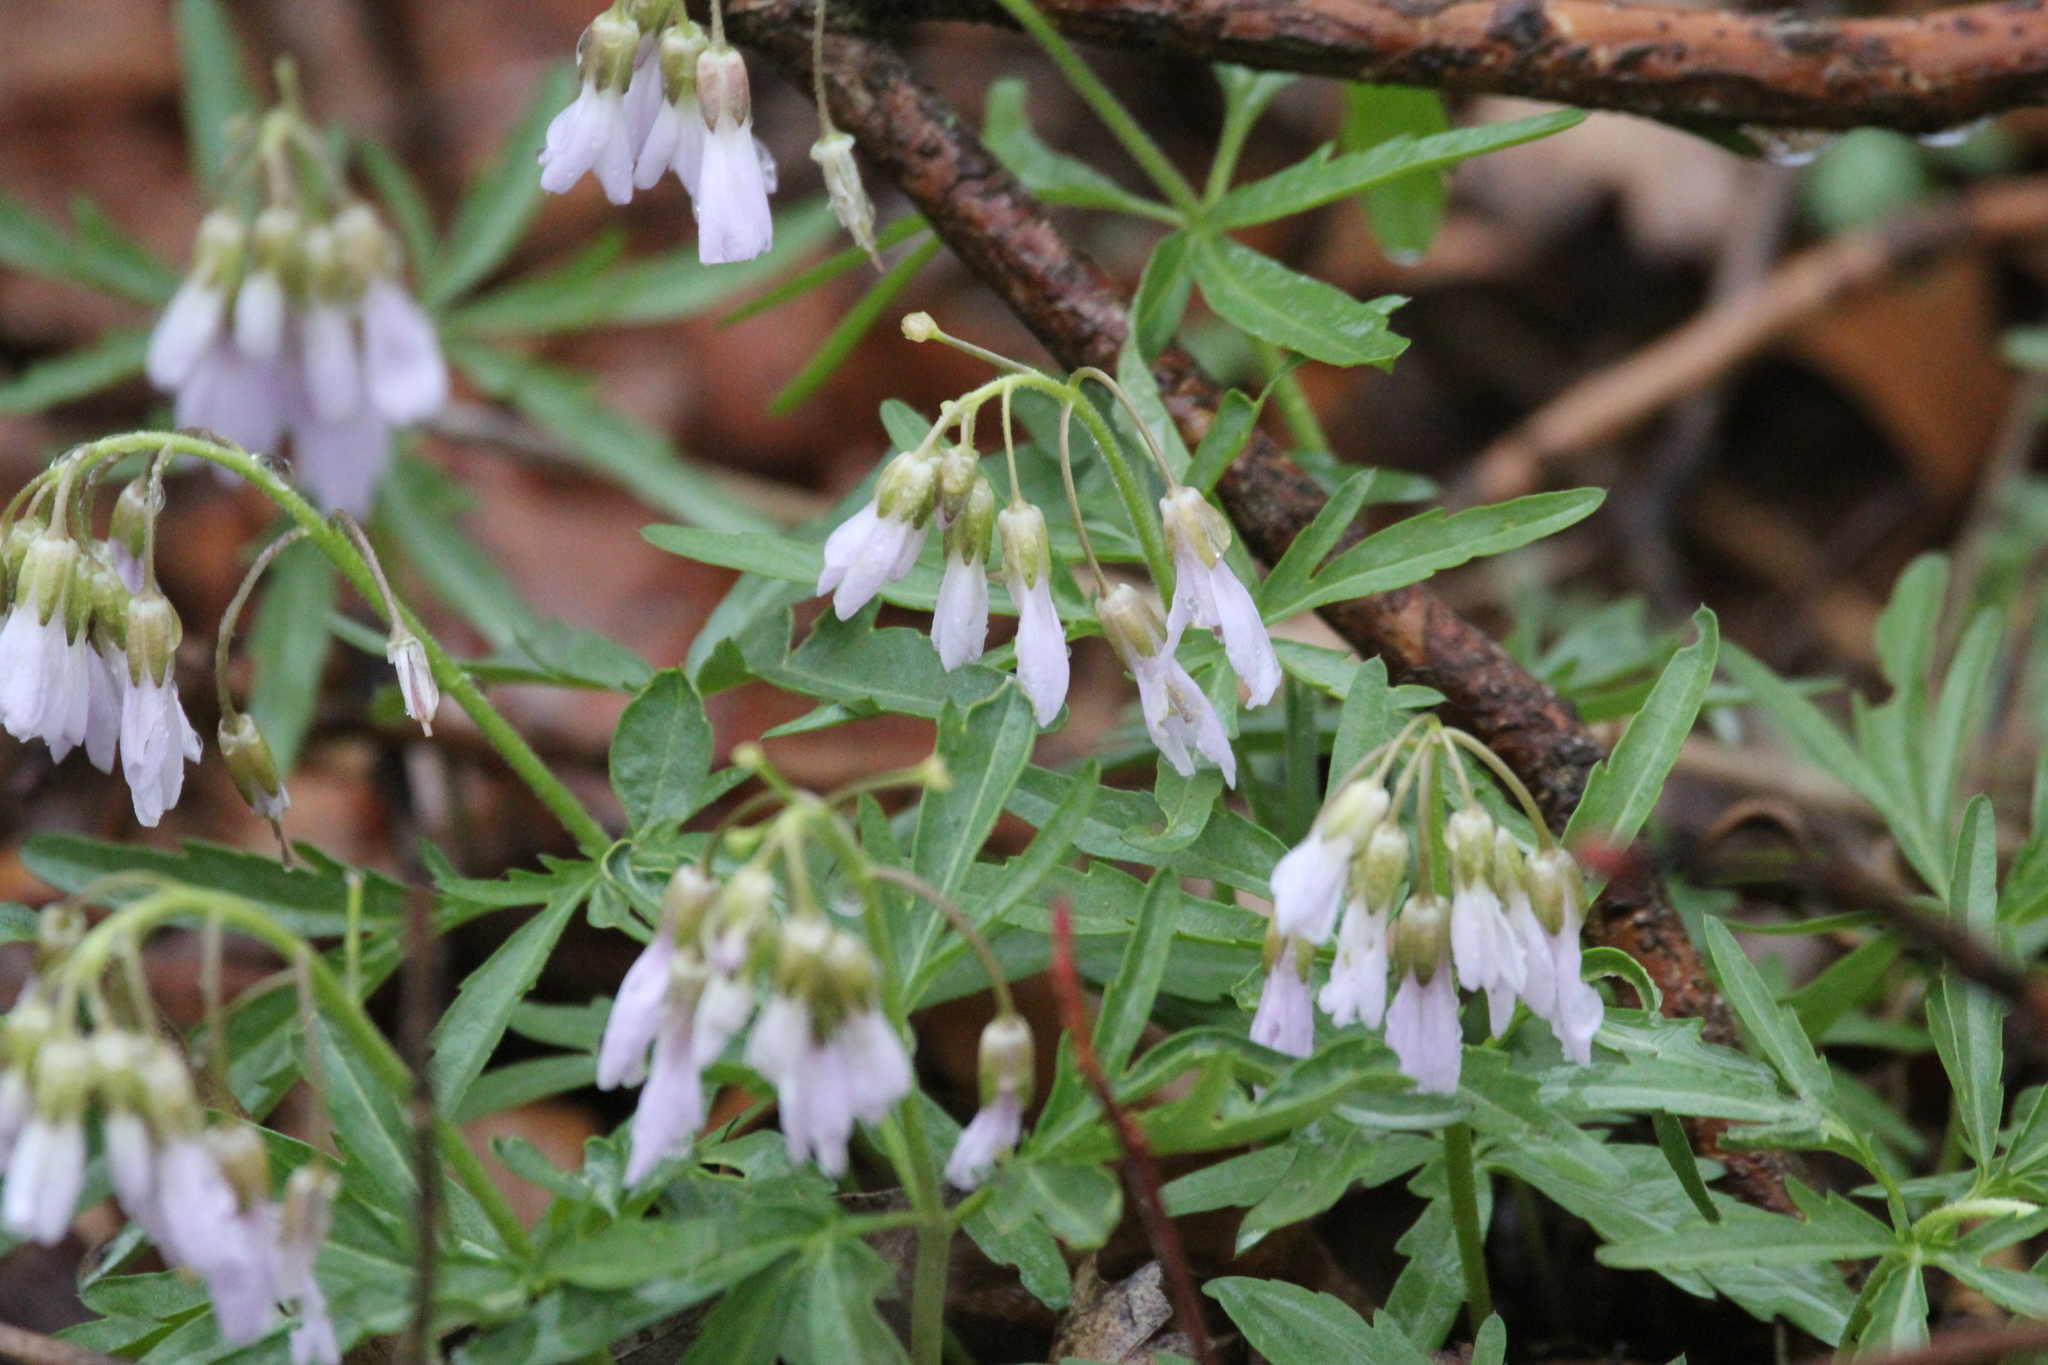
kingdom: Plantae
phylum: Tracheophyta
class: Magnoliopsida
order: Brassicales
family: Brassicaceae
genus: Cardamine
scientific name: Cardamine concatenata
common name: Cut-leaf toothcup
